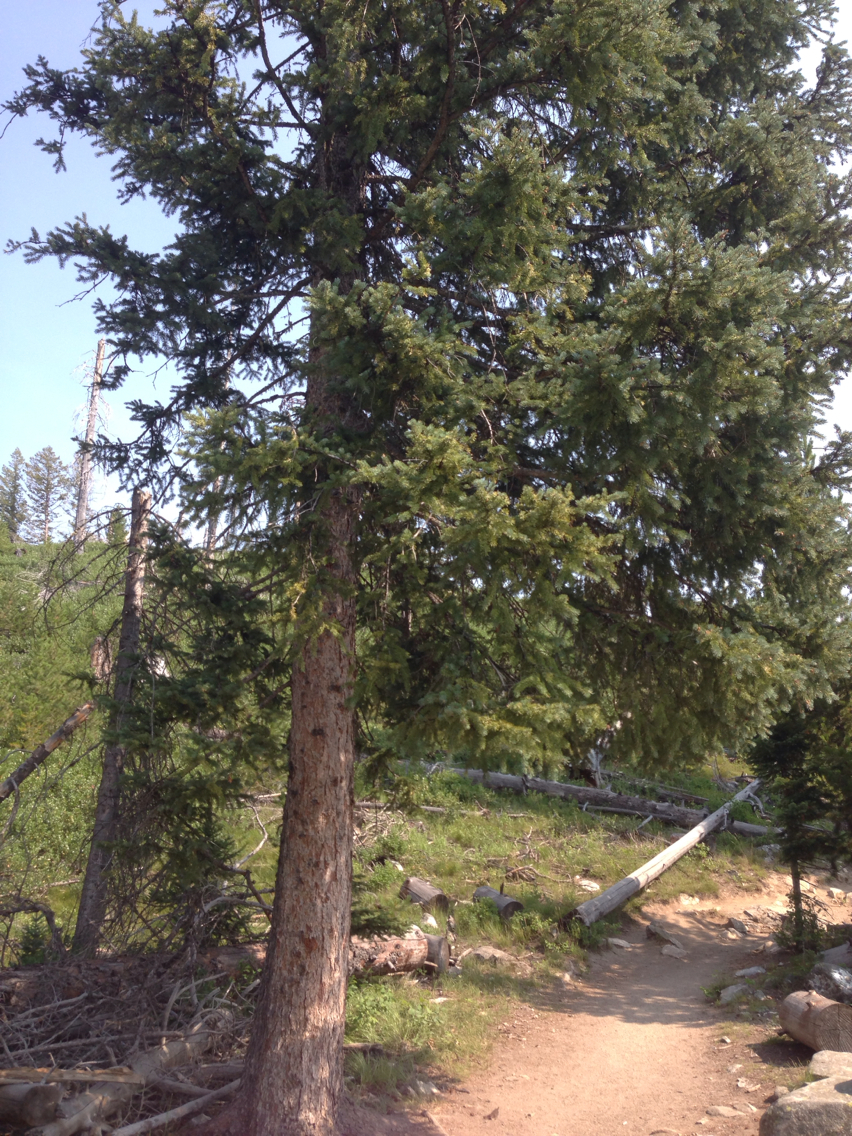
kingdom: Plantae
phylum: Tracheophyta
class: Pinopsida
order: Pinales
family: Pinaceae
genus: Pseudotsuga
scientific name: Pseudotsuga menziesii
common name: Douglas fir
